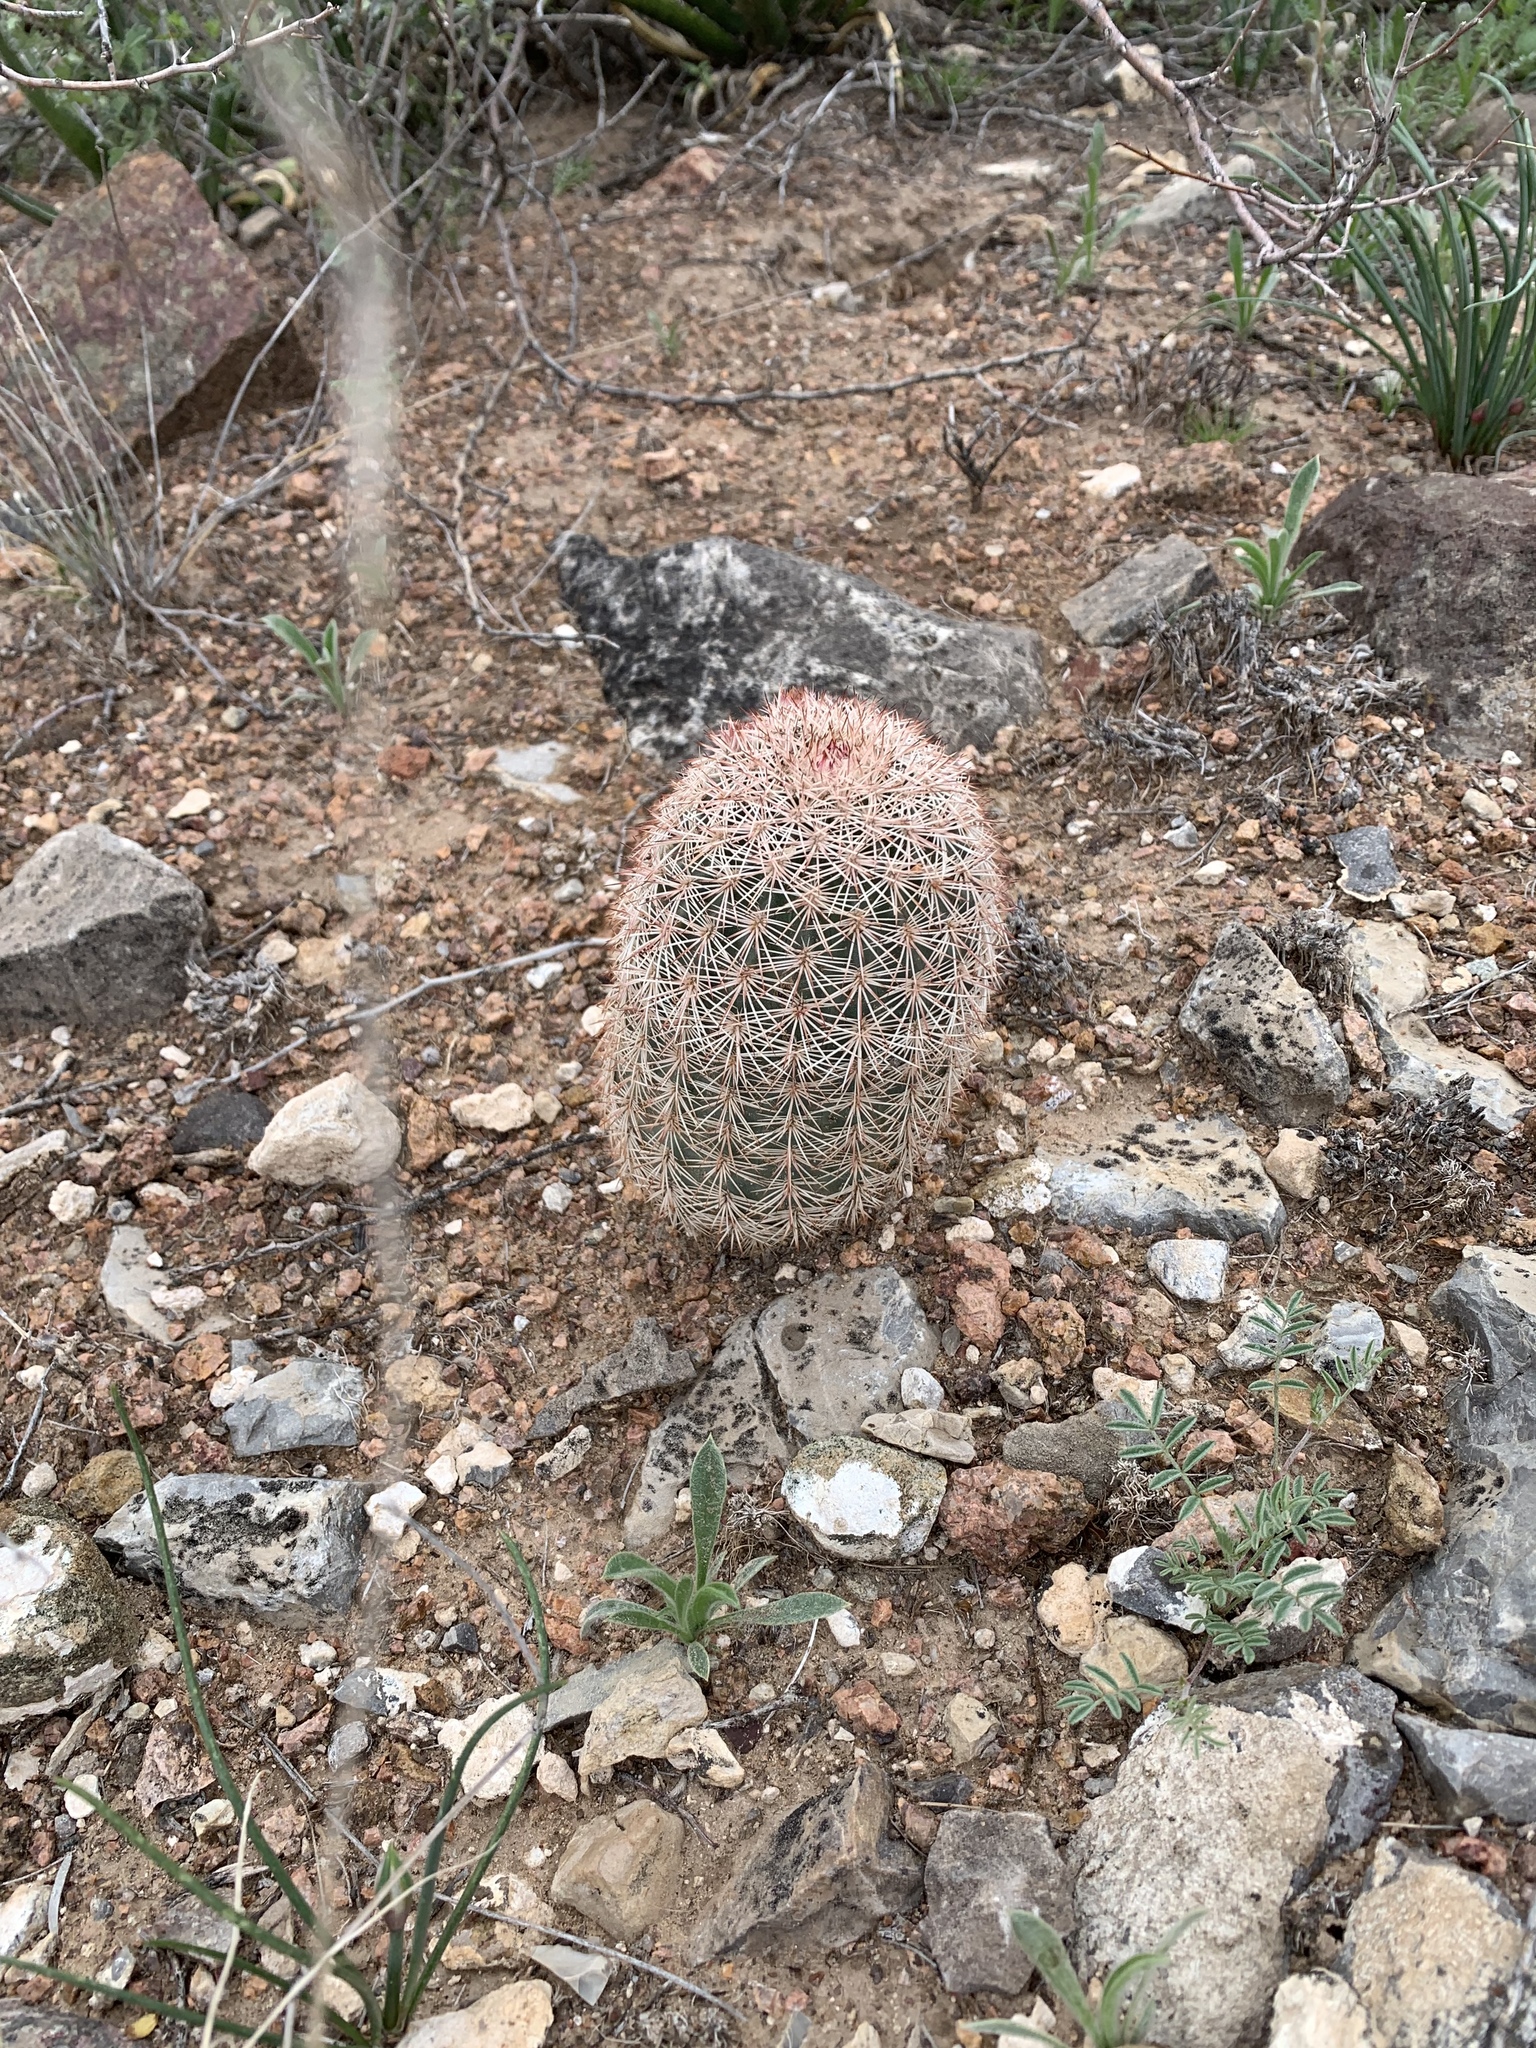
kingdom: Plantae
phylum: Tracheophyta
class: Magnoliopsida
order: Caryophyllales
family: Cactaceae
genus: Echinocereus
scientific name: Echinocereus dasyacanthus
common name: Spiny hedgehog cactus
